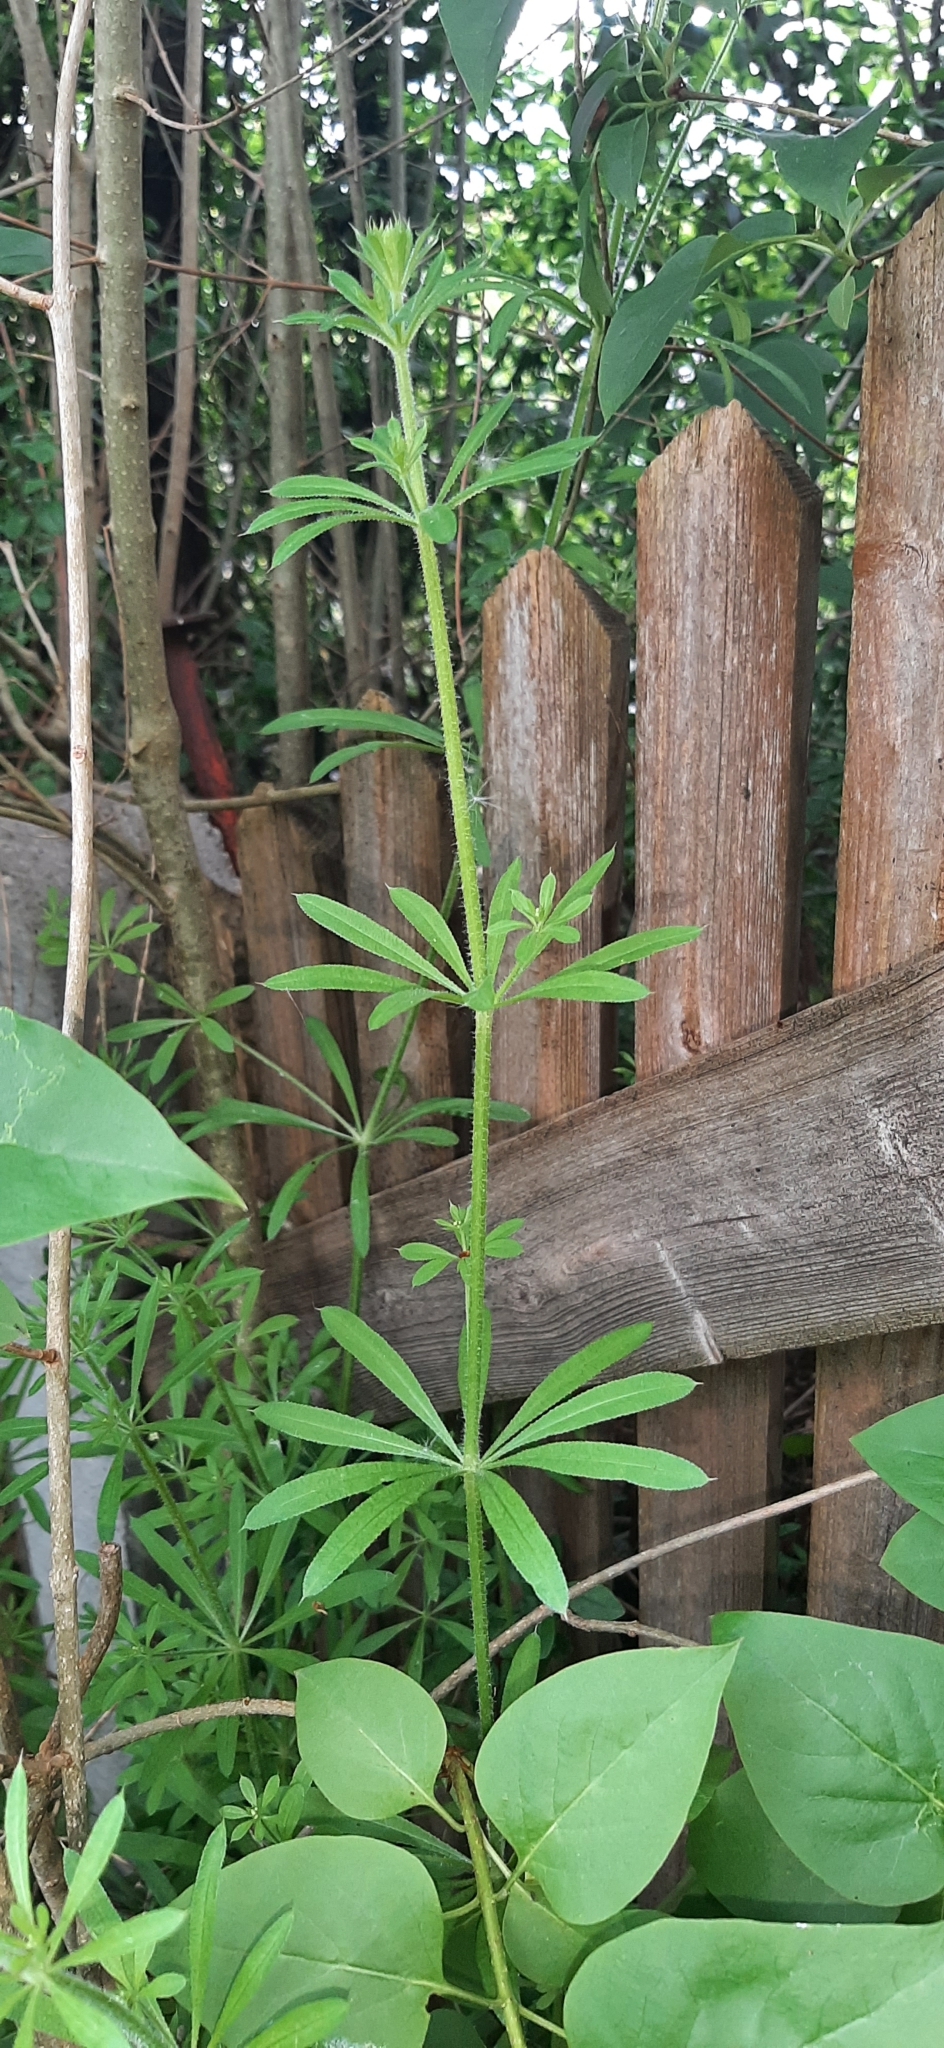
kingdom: Plantae
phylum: Tracheophyta
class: Magnoliopsida
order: Gentianales
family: Rubiaceae
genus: Galium
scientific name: Galium aparine
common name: Cleavers
